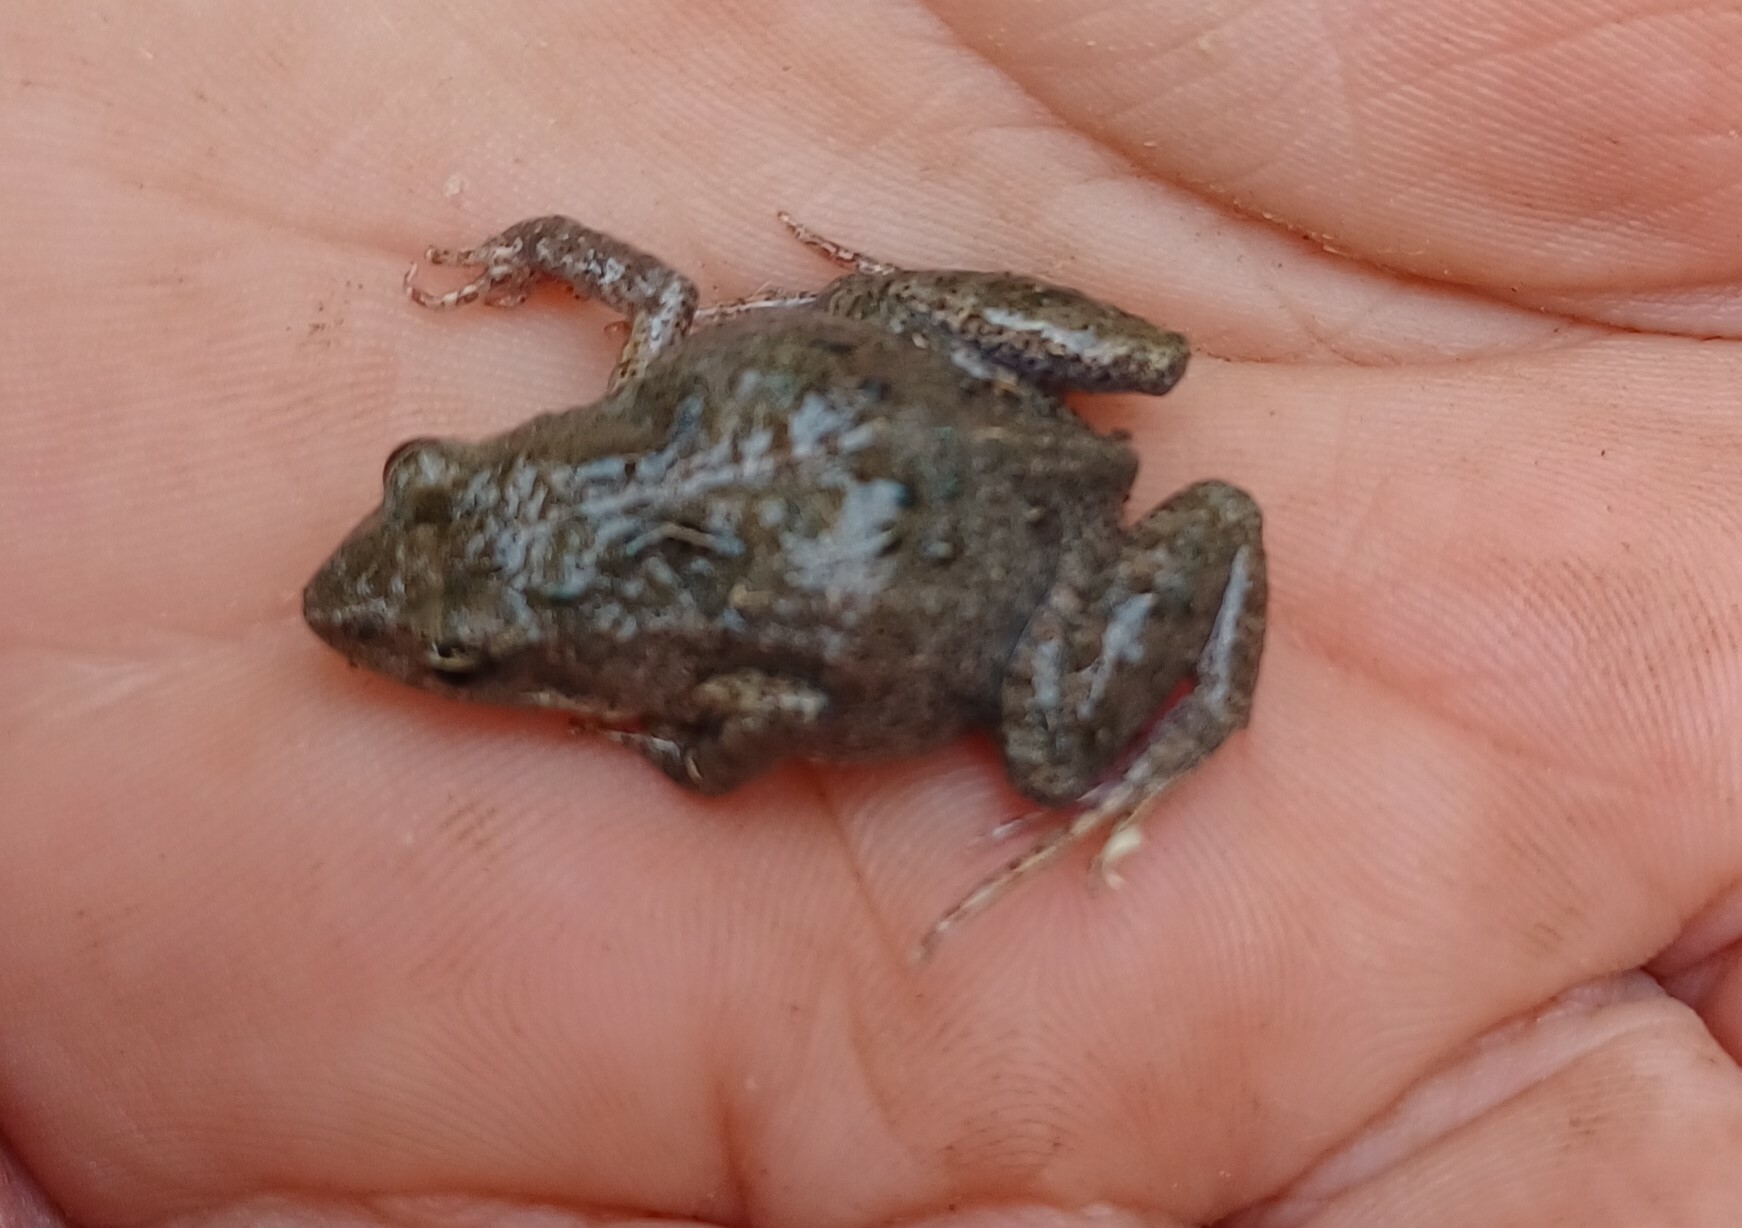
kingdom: Animalia
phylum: Chordata
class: Amphibia
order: Anura
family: Myobatrachidae
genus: Crinia
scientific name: Crinia signifera
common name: Brown froglet
